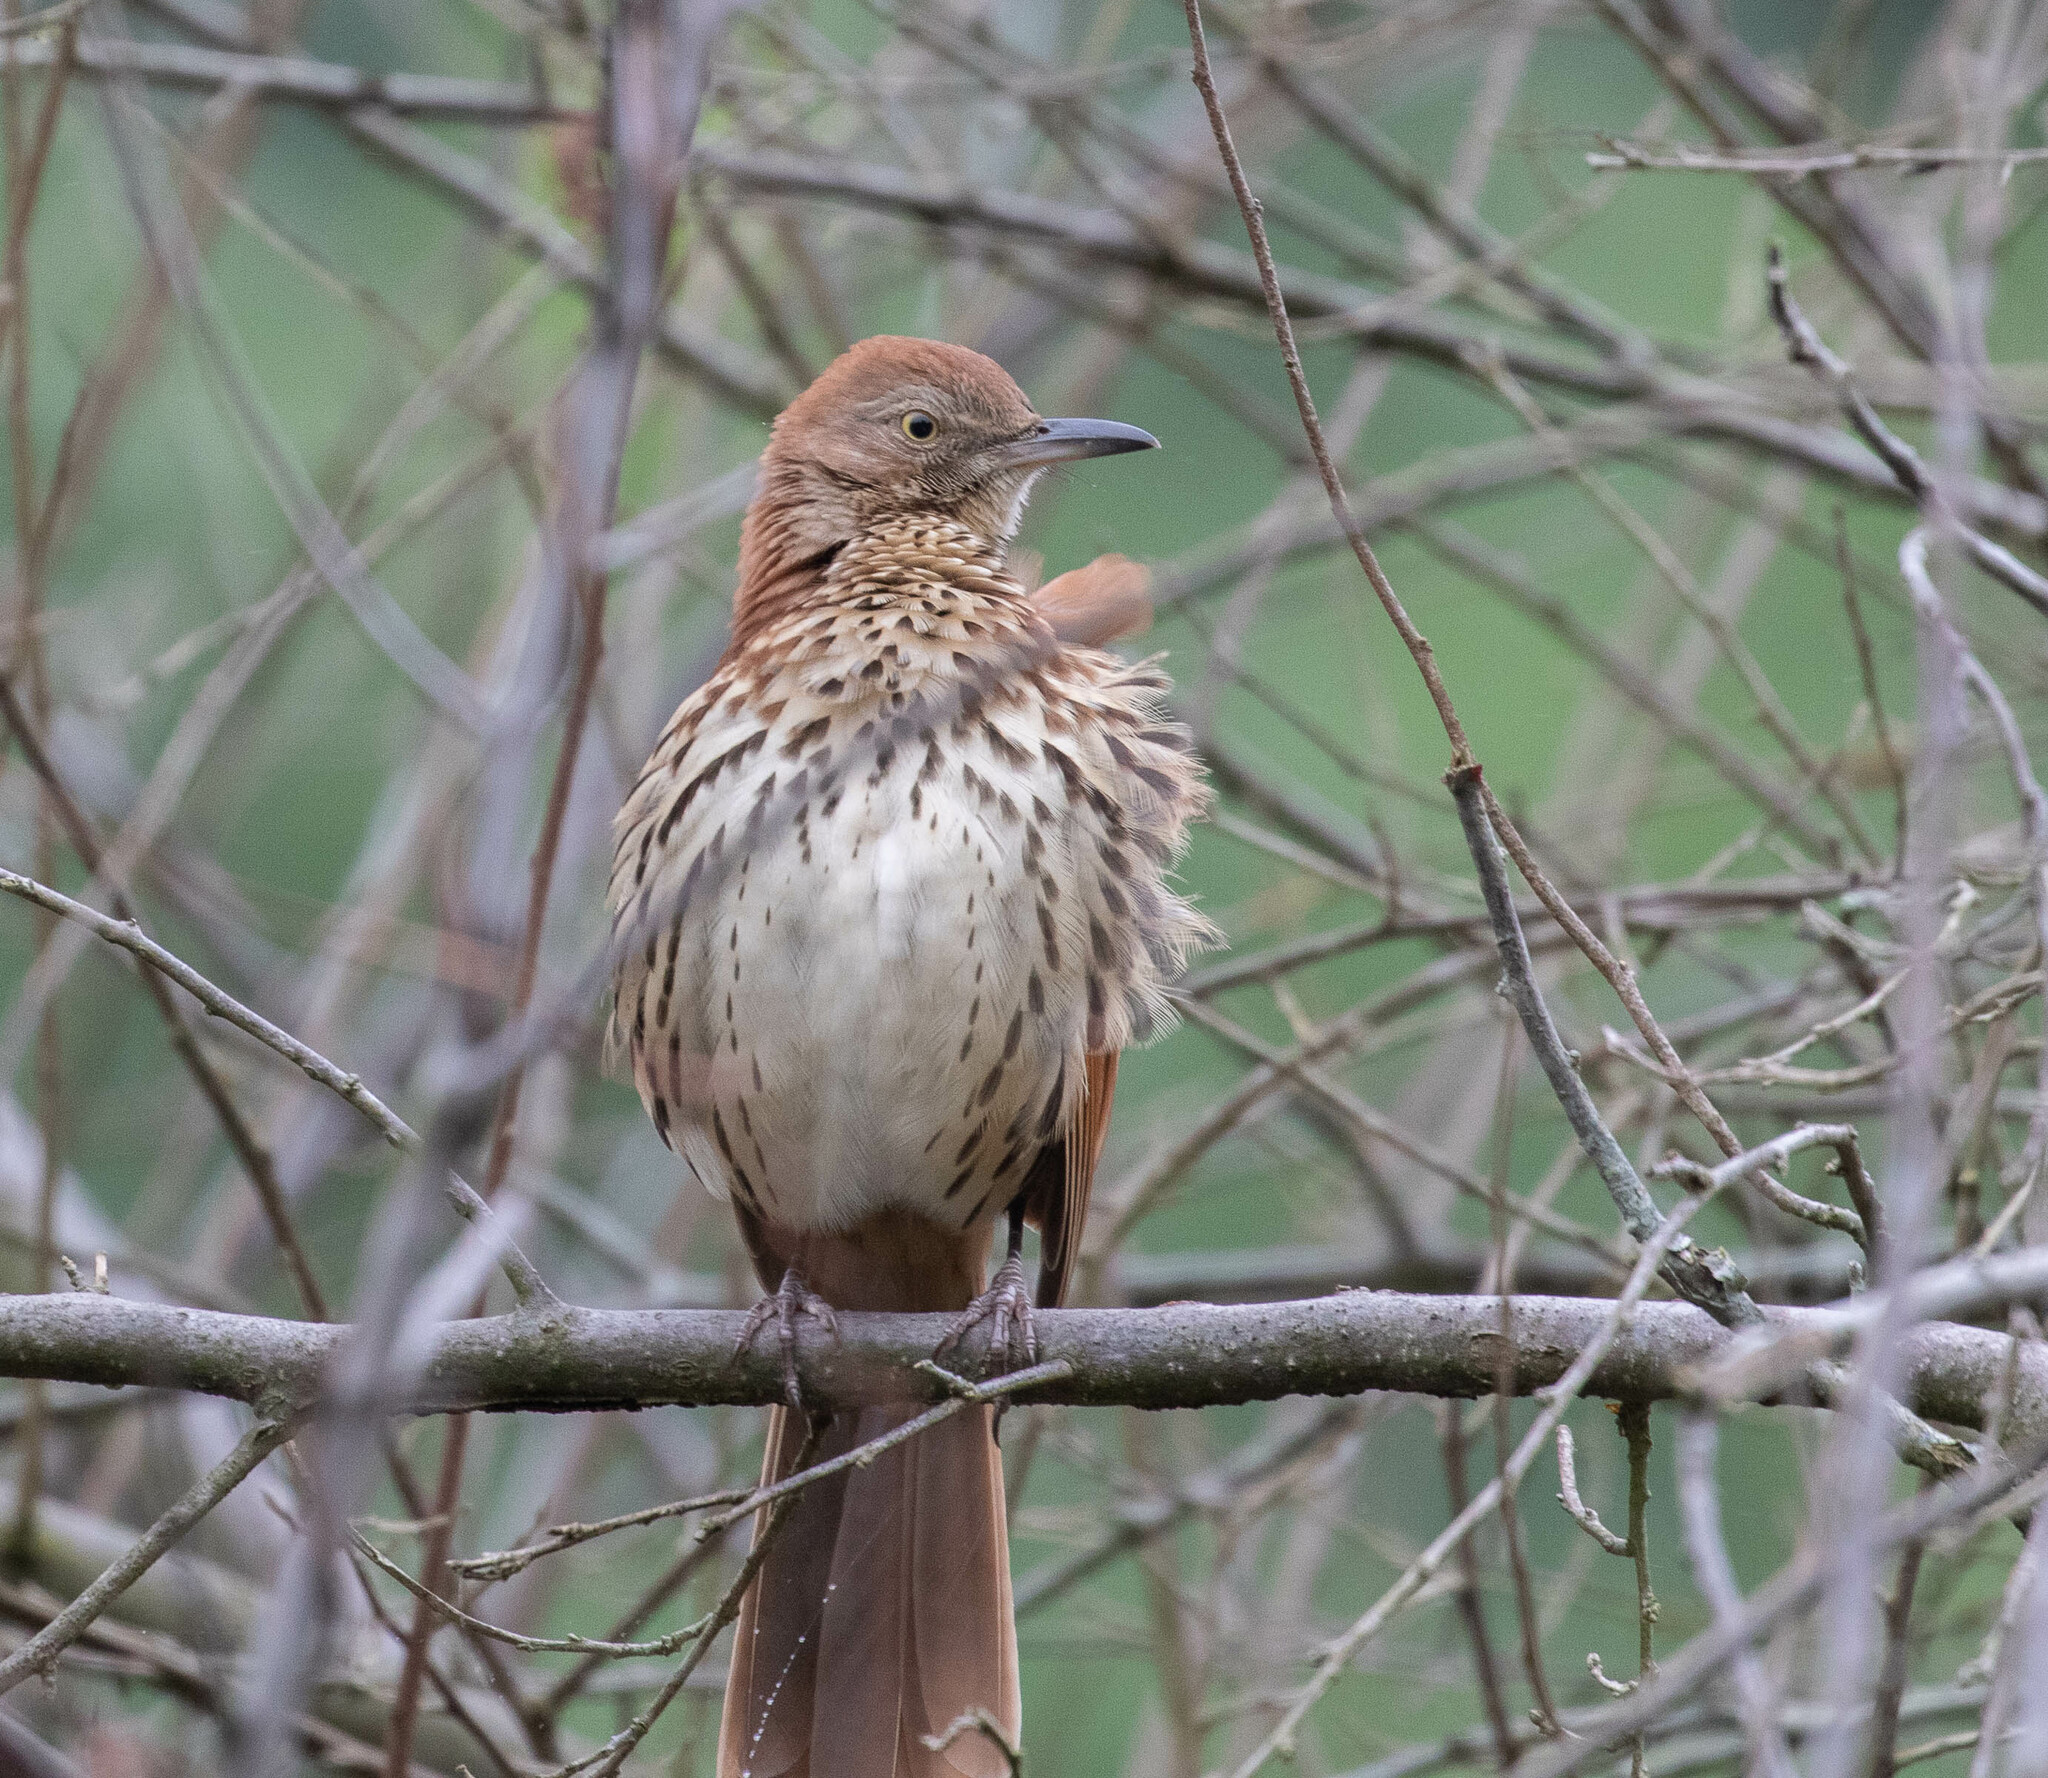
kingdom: Animalia
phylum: Chordata
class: Aves
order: Passeriformes
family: Mimidae
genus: Toxostoma
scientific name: Toxostoma rufum
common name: Brown thrasher
